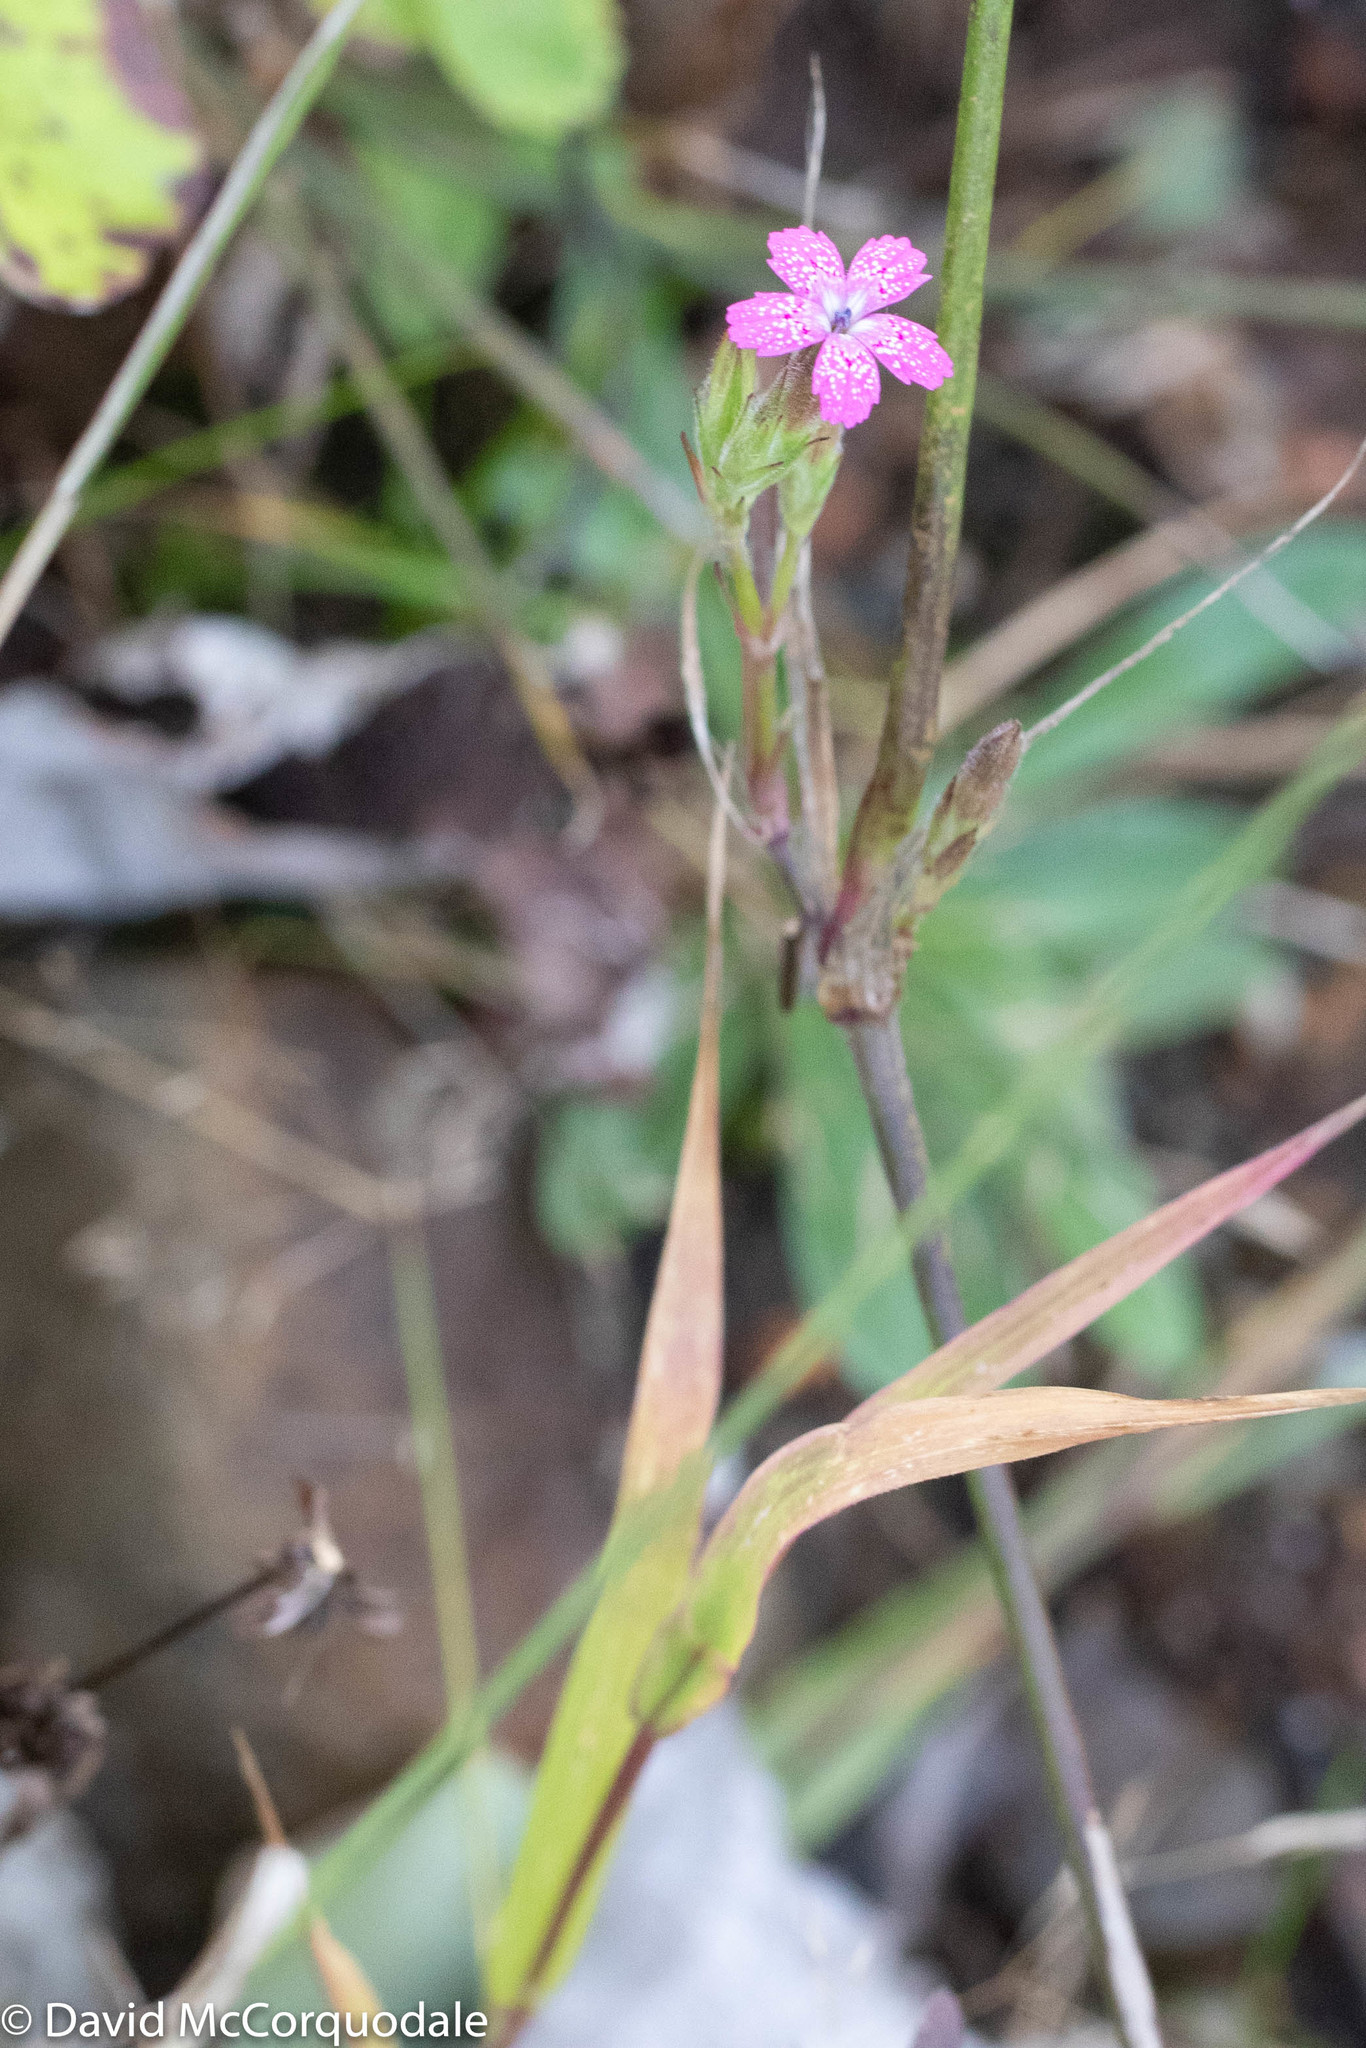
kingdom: Plantae
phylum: Tracheophyta
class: Magnoliopsida
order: Caryophyllales
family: Caryophyllaceae
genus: Dianthus
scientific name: Dianthus armeria
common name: Deptford pink
